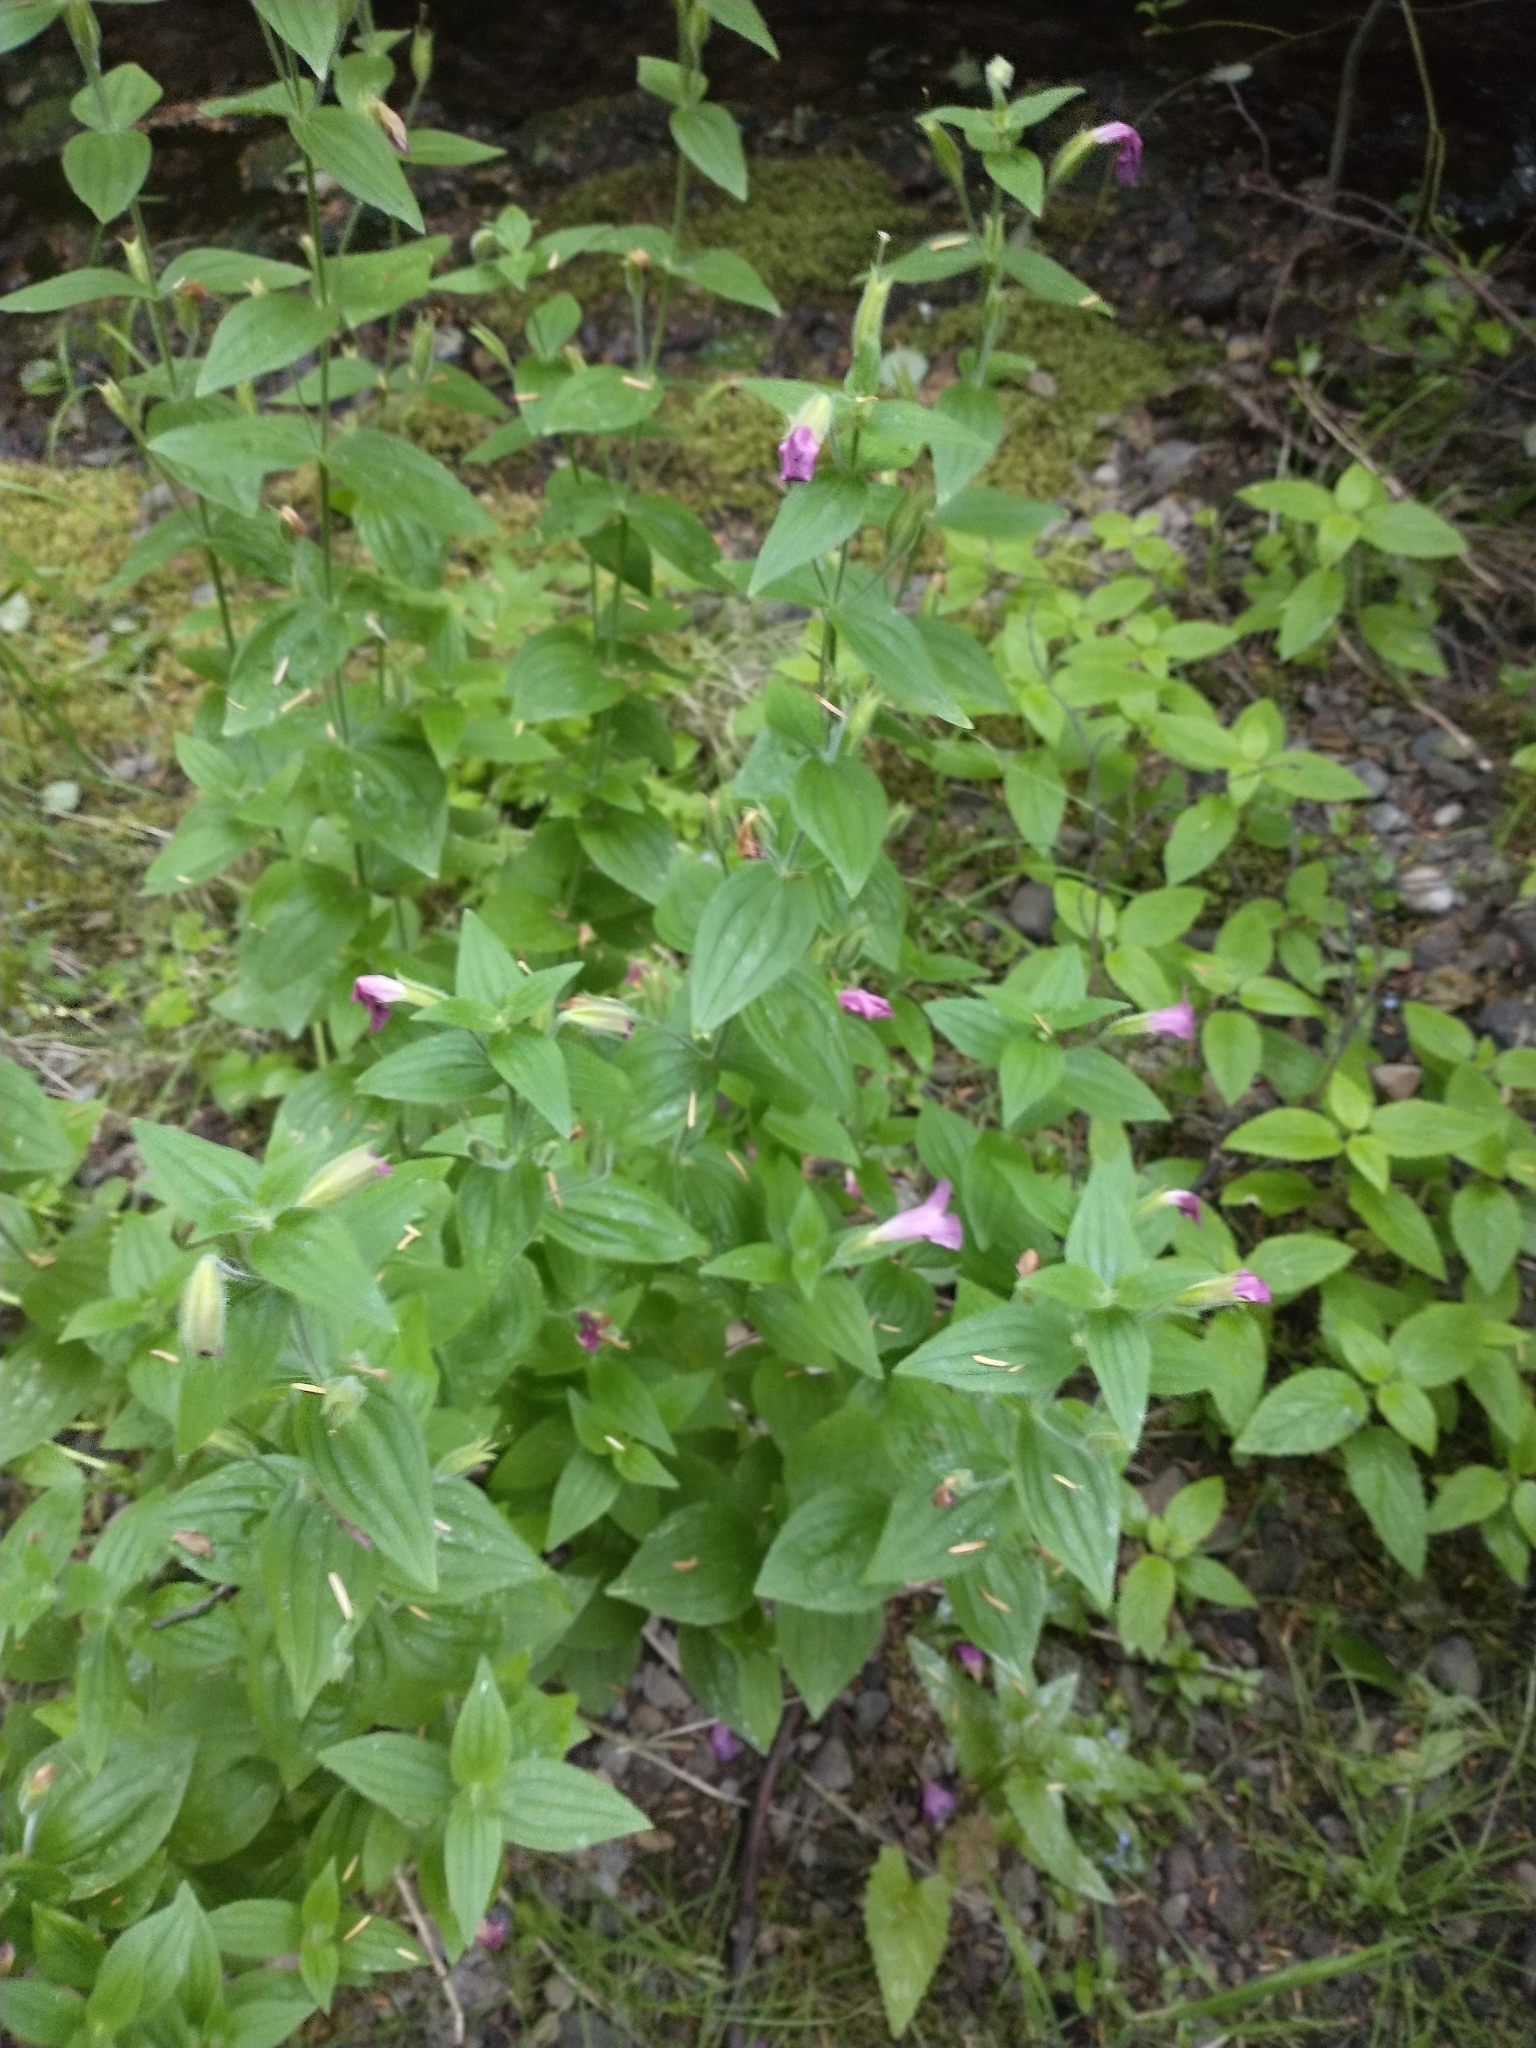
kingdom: Plantae
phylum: Tracheophyta
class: Magnoliopsida
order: Lamiales
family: Phrymaceae
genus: Erythranthe
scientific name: Erythranthe lewisii
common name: Lewis's monkey-flower
